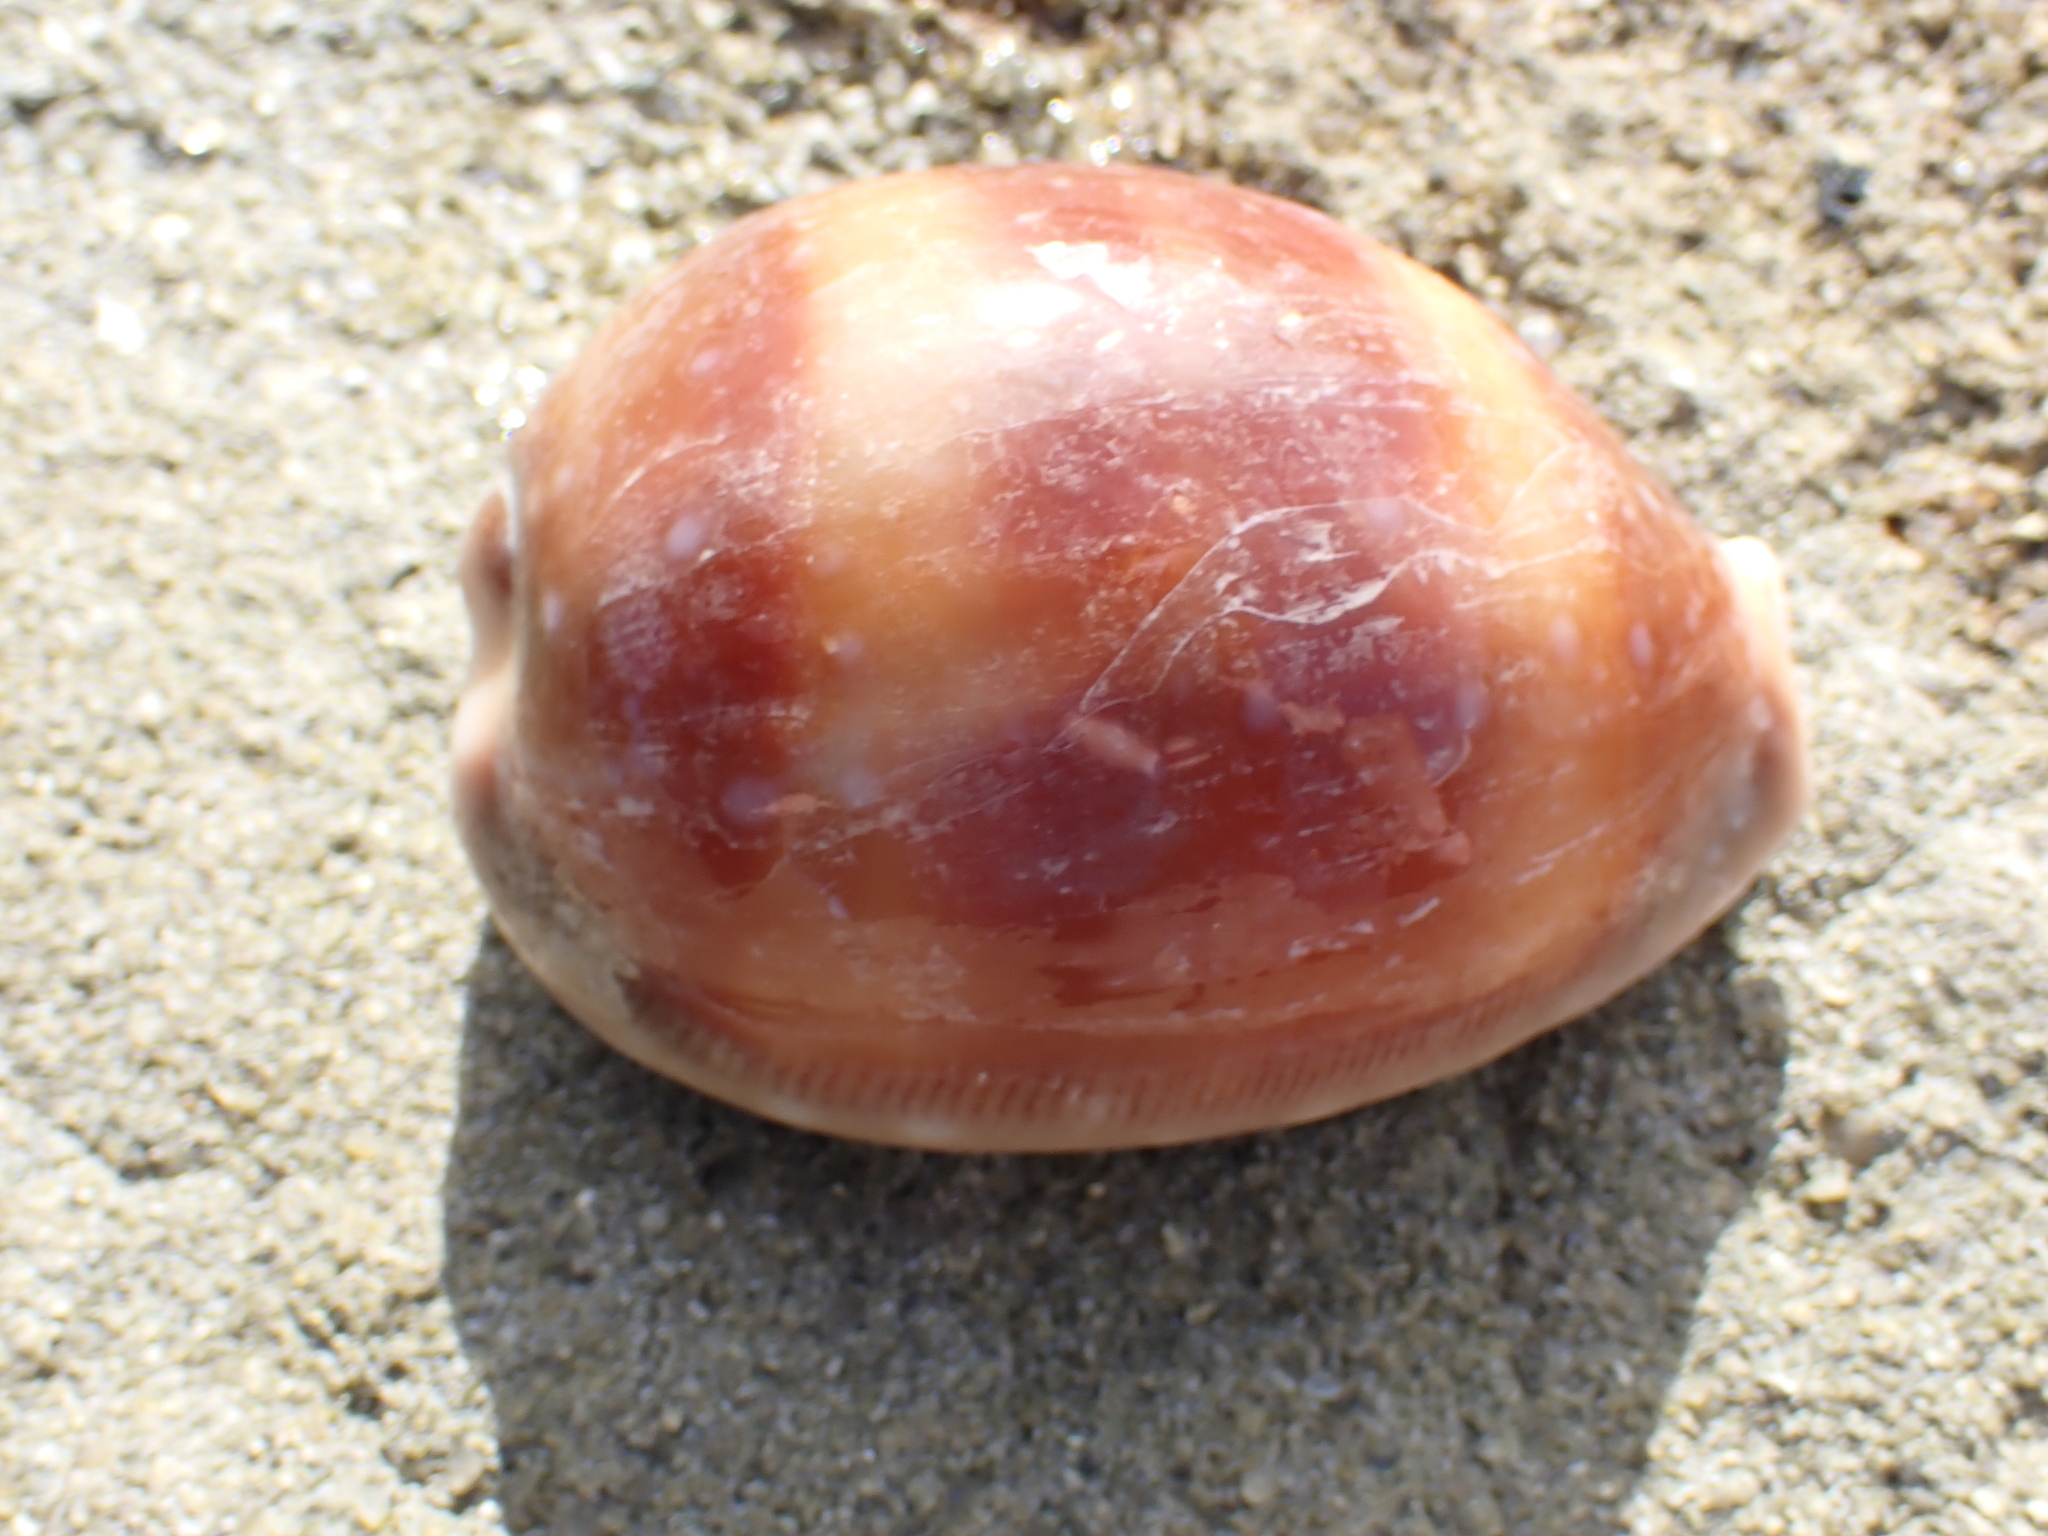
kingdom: Animalia
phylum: Mollusca
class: Gastropoda
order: Littorinimorpha
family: Cypraeidae
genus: Lyncina
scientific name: Lyncina vitellus
